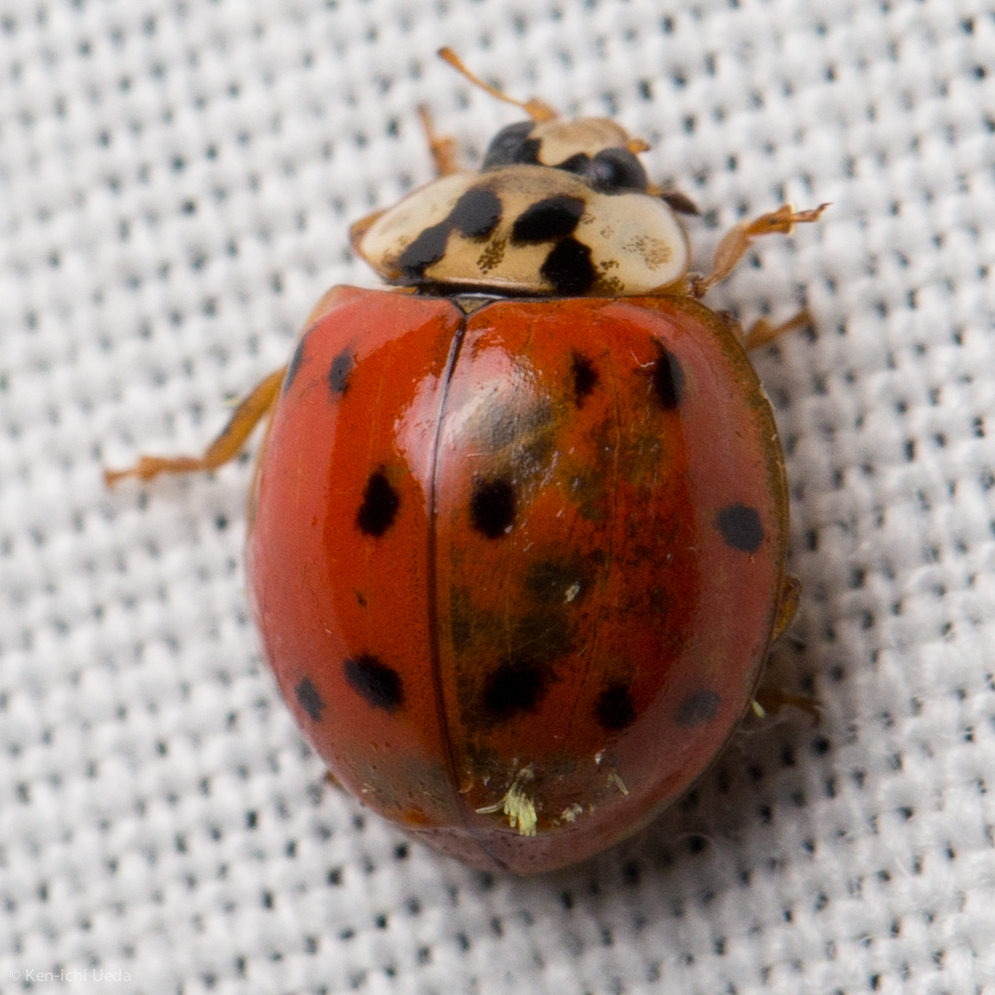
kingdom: Animalia
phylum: Arthropoda
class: Insecta
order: Coleoptera
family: Coccinellidae
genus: Harmonia
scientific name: Harmonia axyridis
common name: Harlequin ladybird
